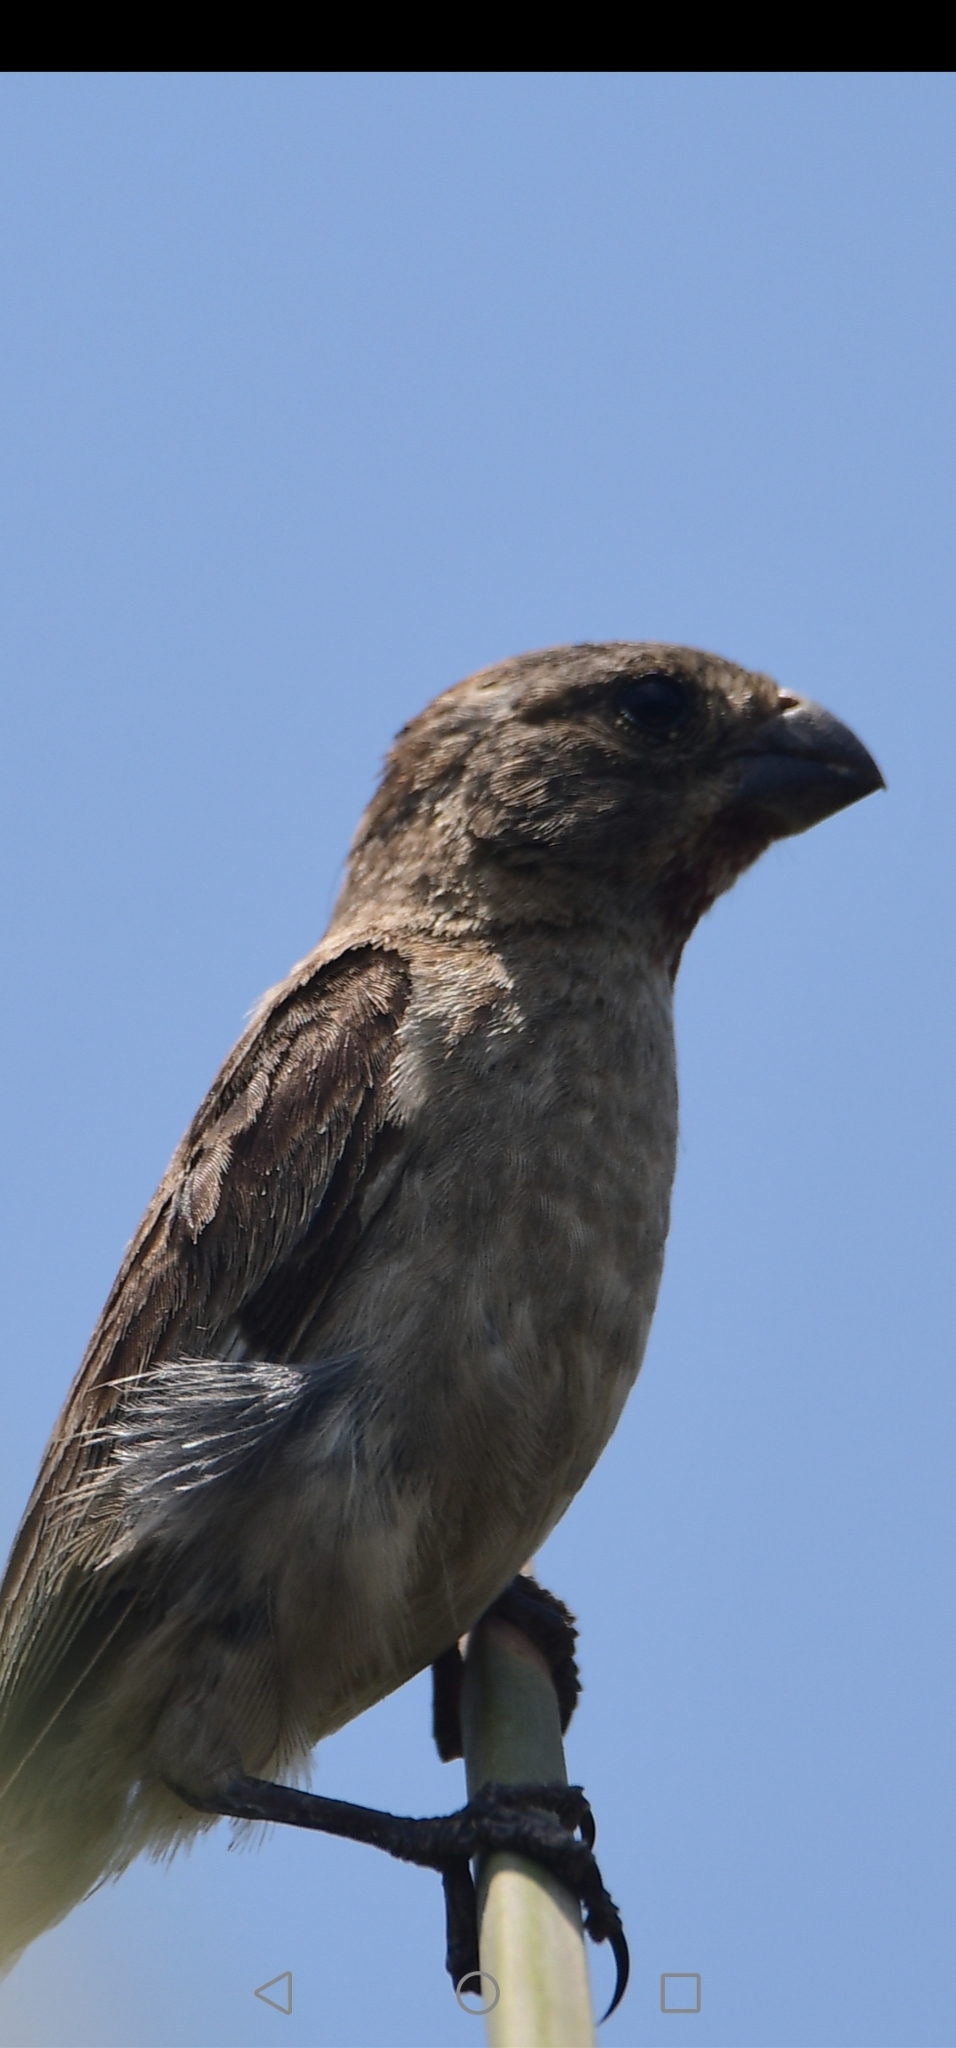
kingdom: Animalia
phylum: Chordata
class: Aves
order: Passeriformes
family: Thraupidae
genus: Sporophila
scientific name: Sporophila telasco
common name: Chestnut-throated seedeater
